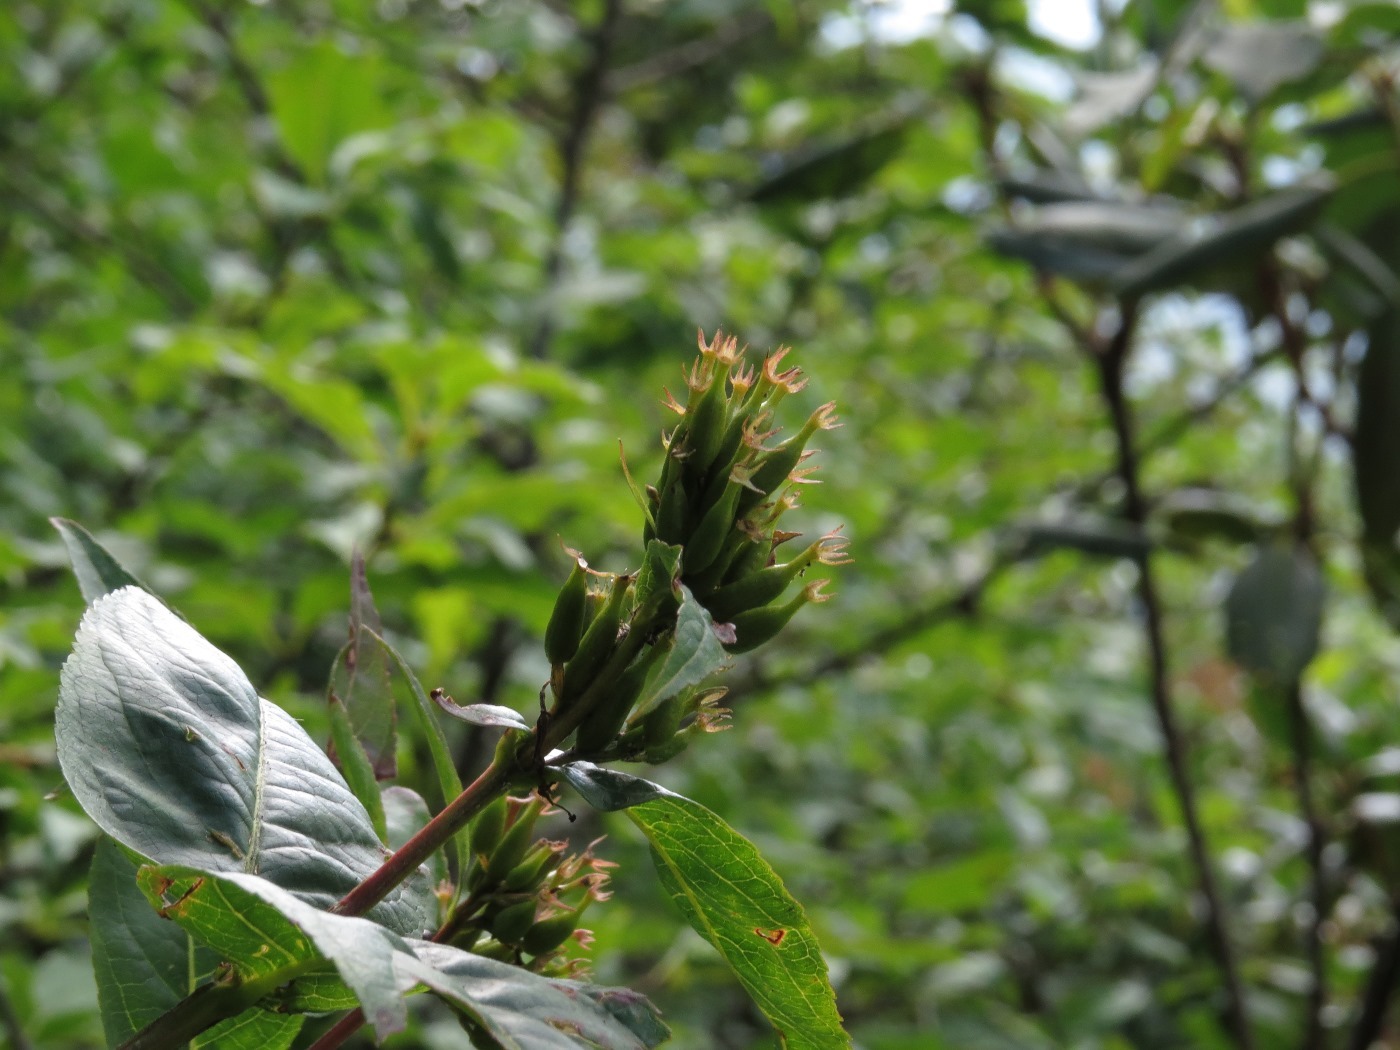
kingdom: Plantae
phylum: Tracheophyta
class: Magnoliopsida
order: Dipsacales
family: Caprifoliaceae
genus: Diervilla
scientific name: Diervilla sessilifolia
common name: Bush-honeysuckle
